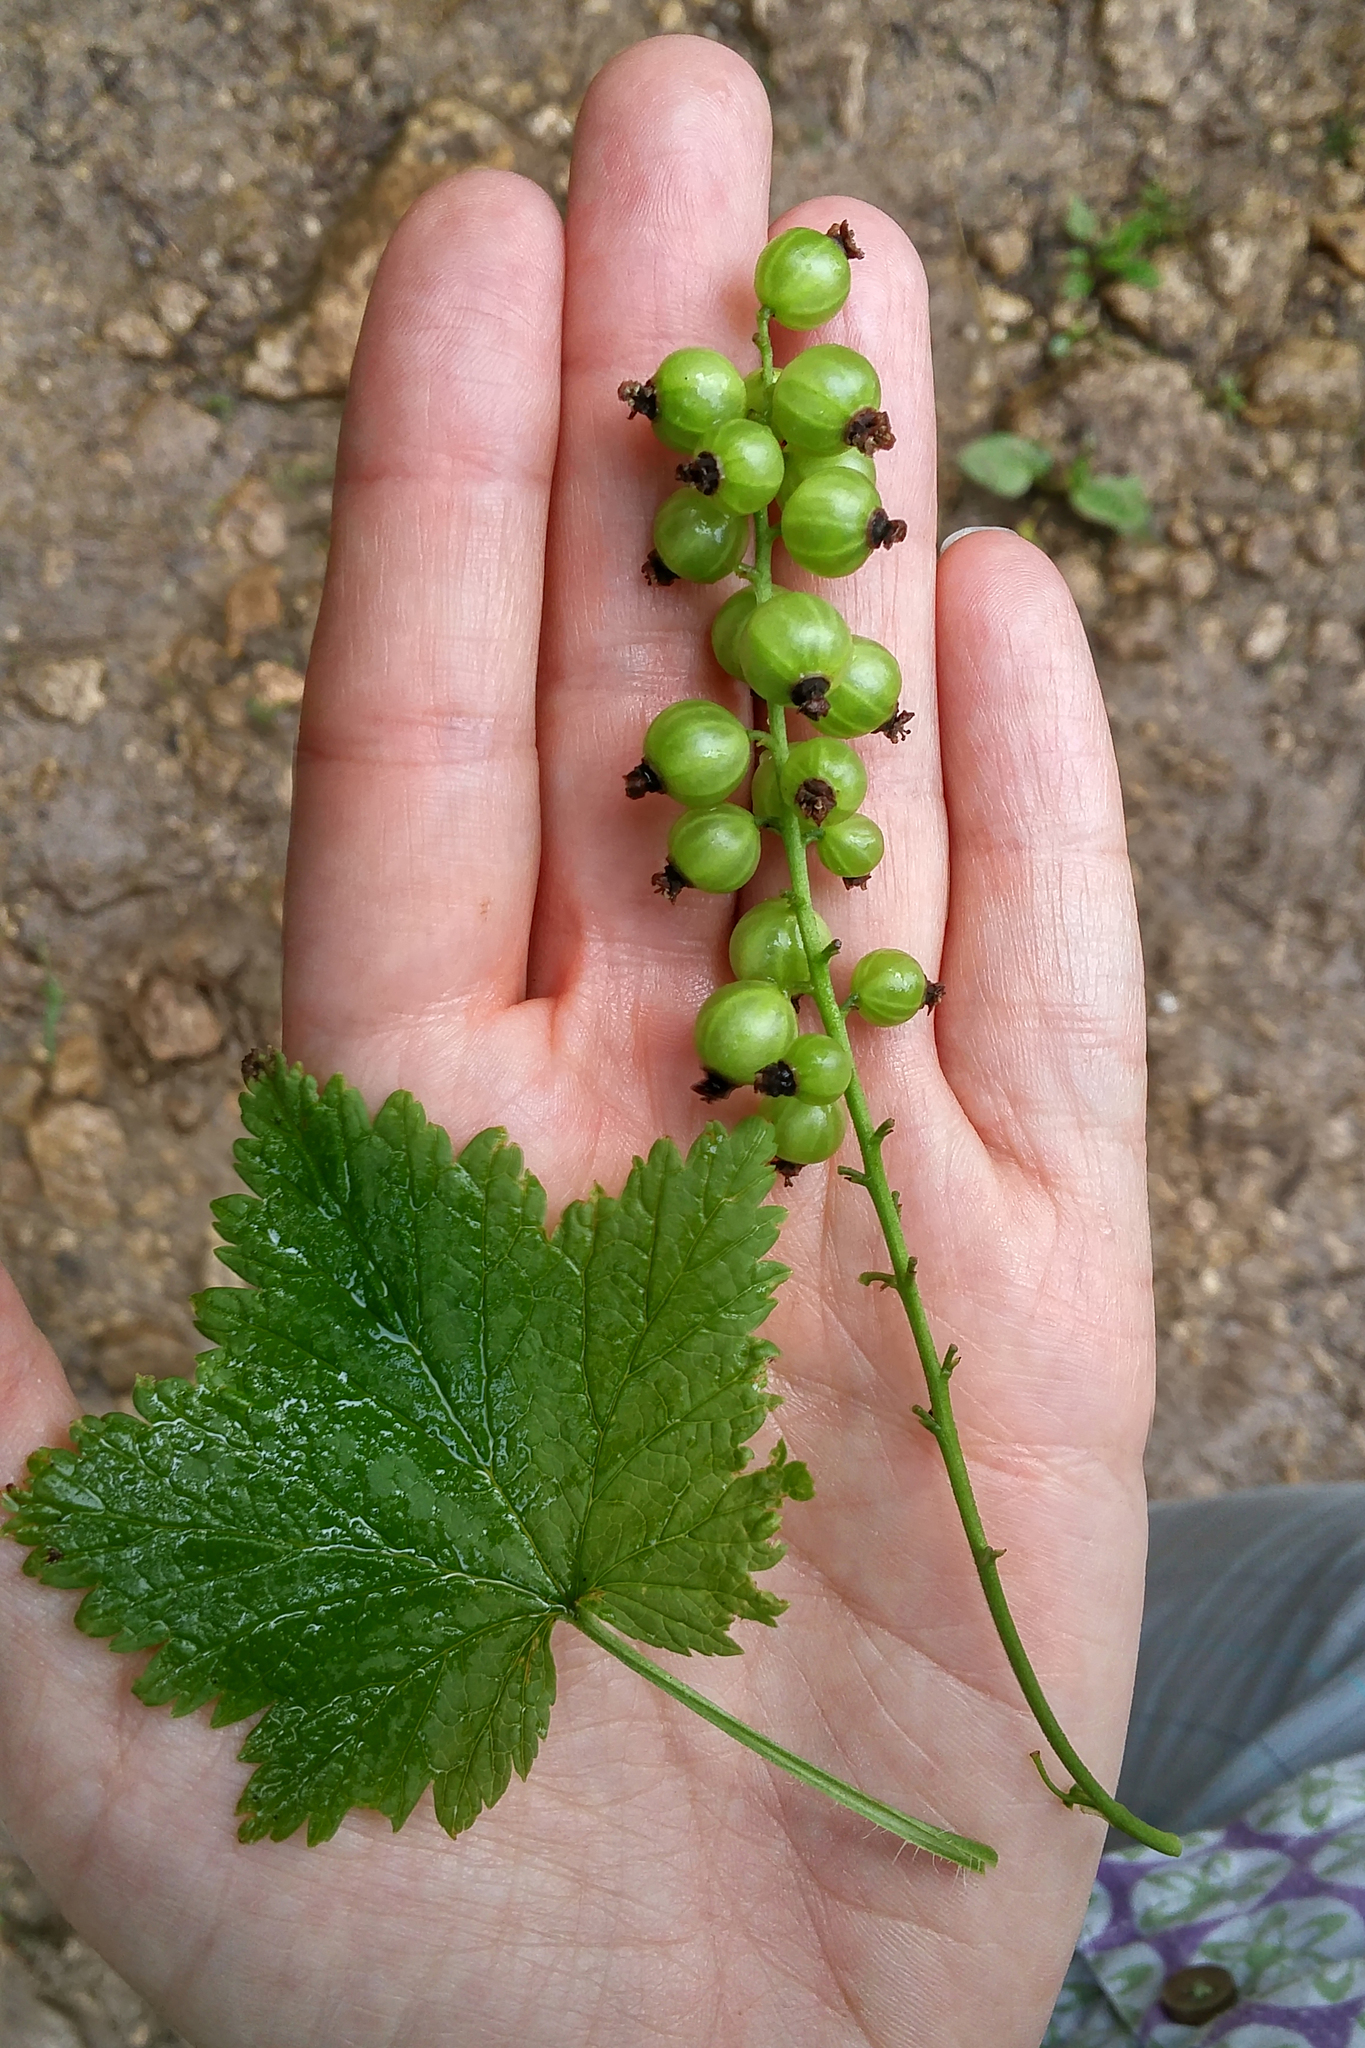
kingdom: Plantae
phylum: Tracheophyta
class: Magnoliopsida
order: Saxifragales
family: Grossulariaceae
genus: Ribes
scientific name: Ribes biebersteinii
